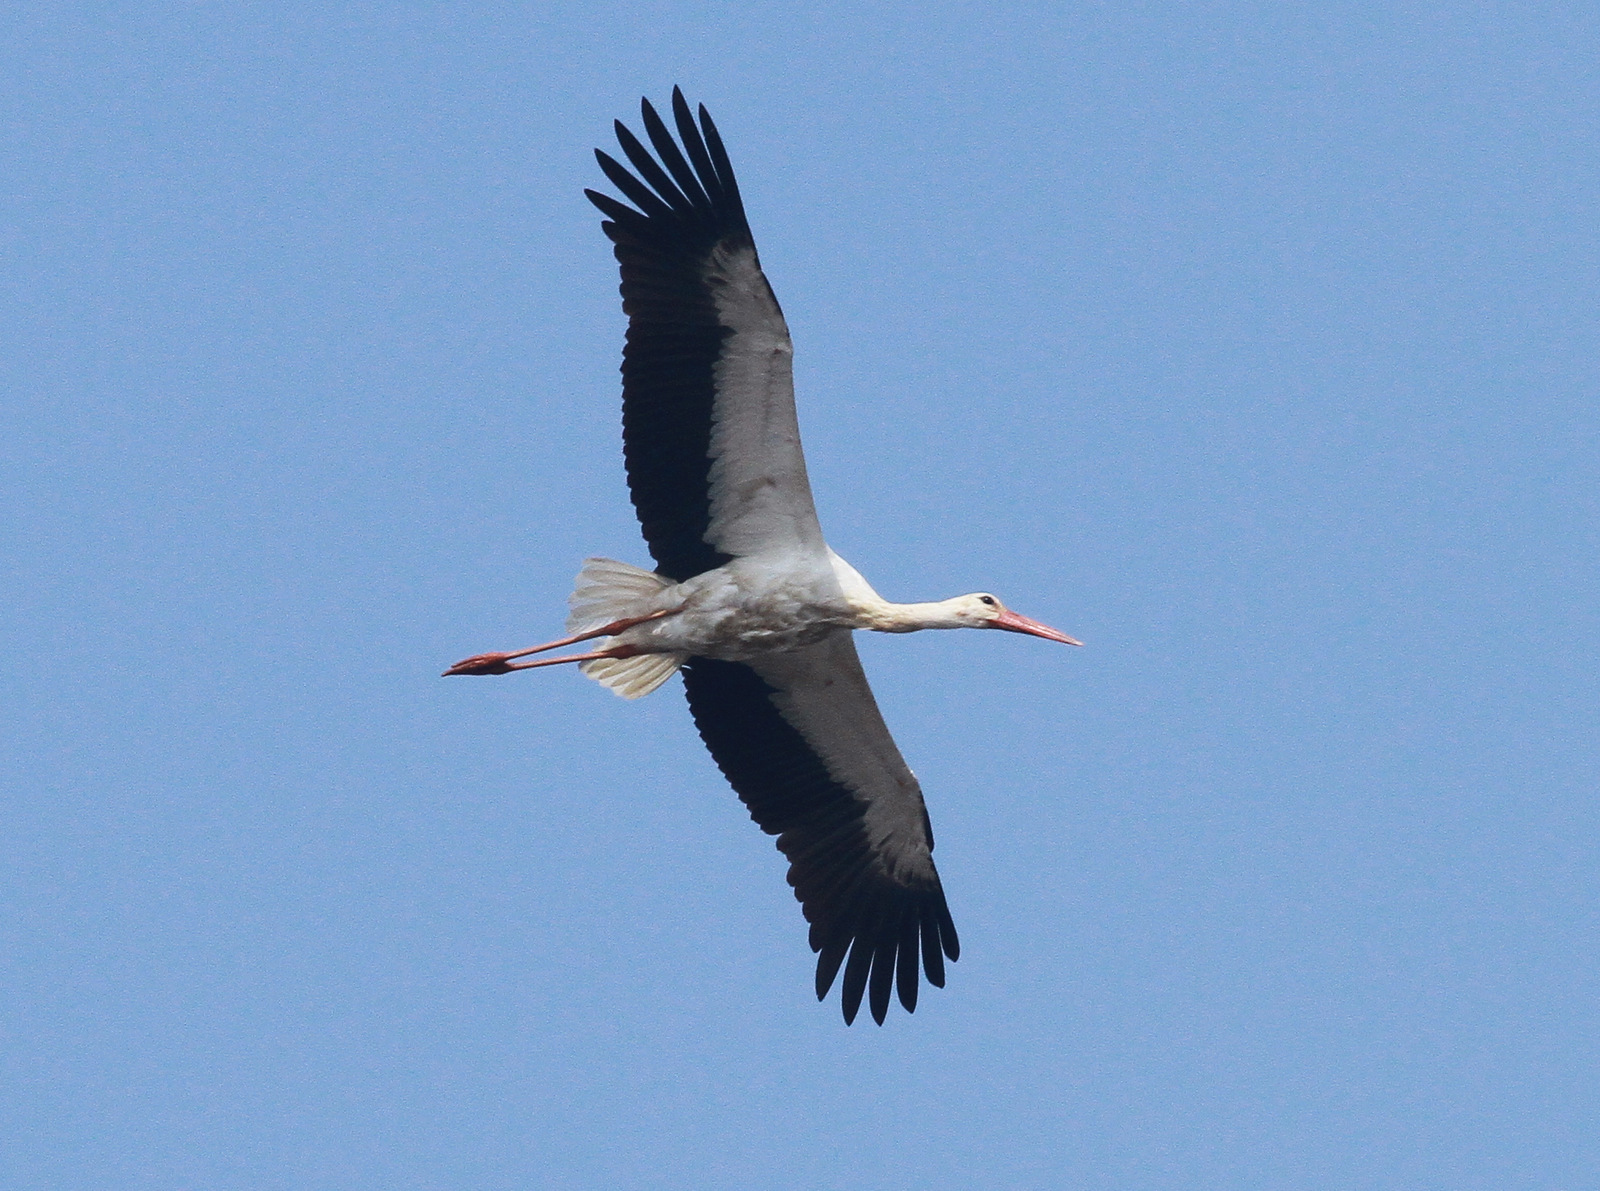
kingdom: Animalia
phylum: Chordata
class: Aves
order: Ciconiiformes
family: Ciconiidae
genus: Ciconia
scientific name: Ciconia ciconia
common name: White stork
